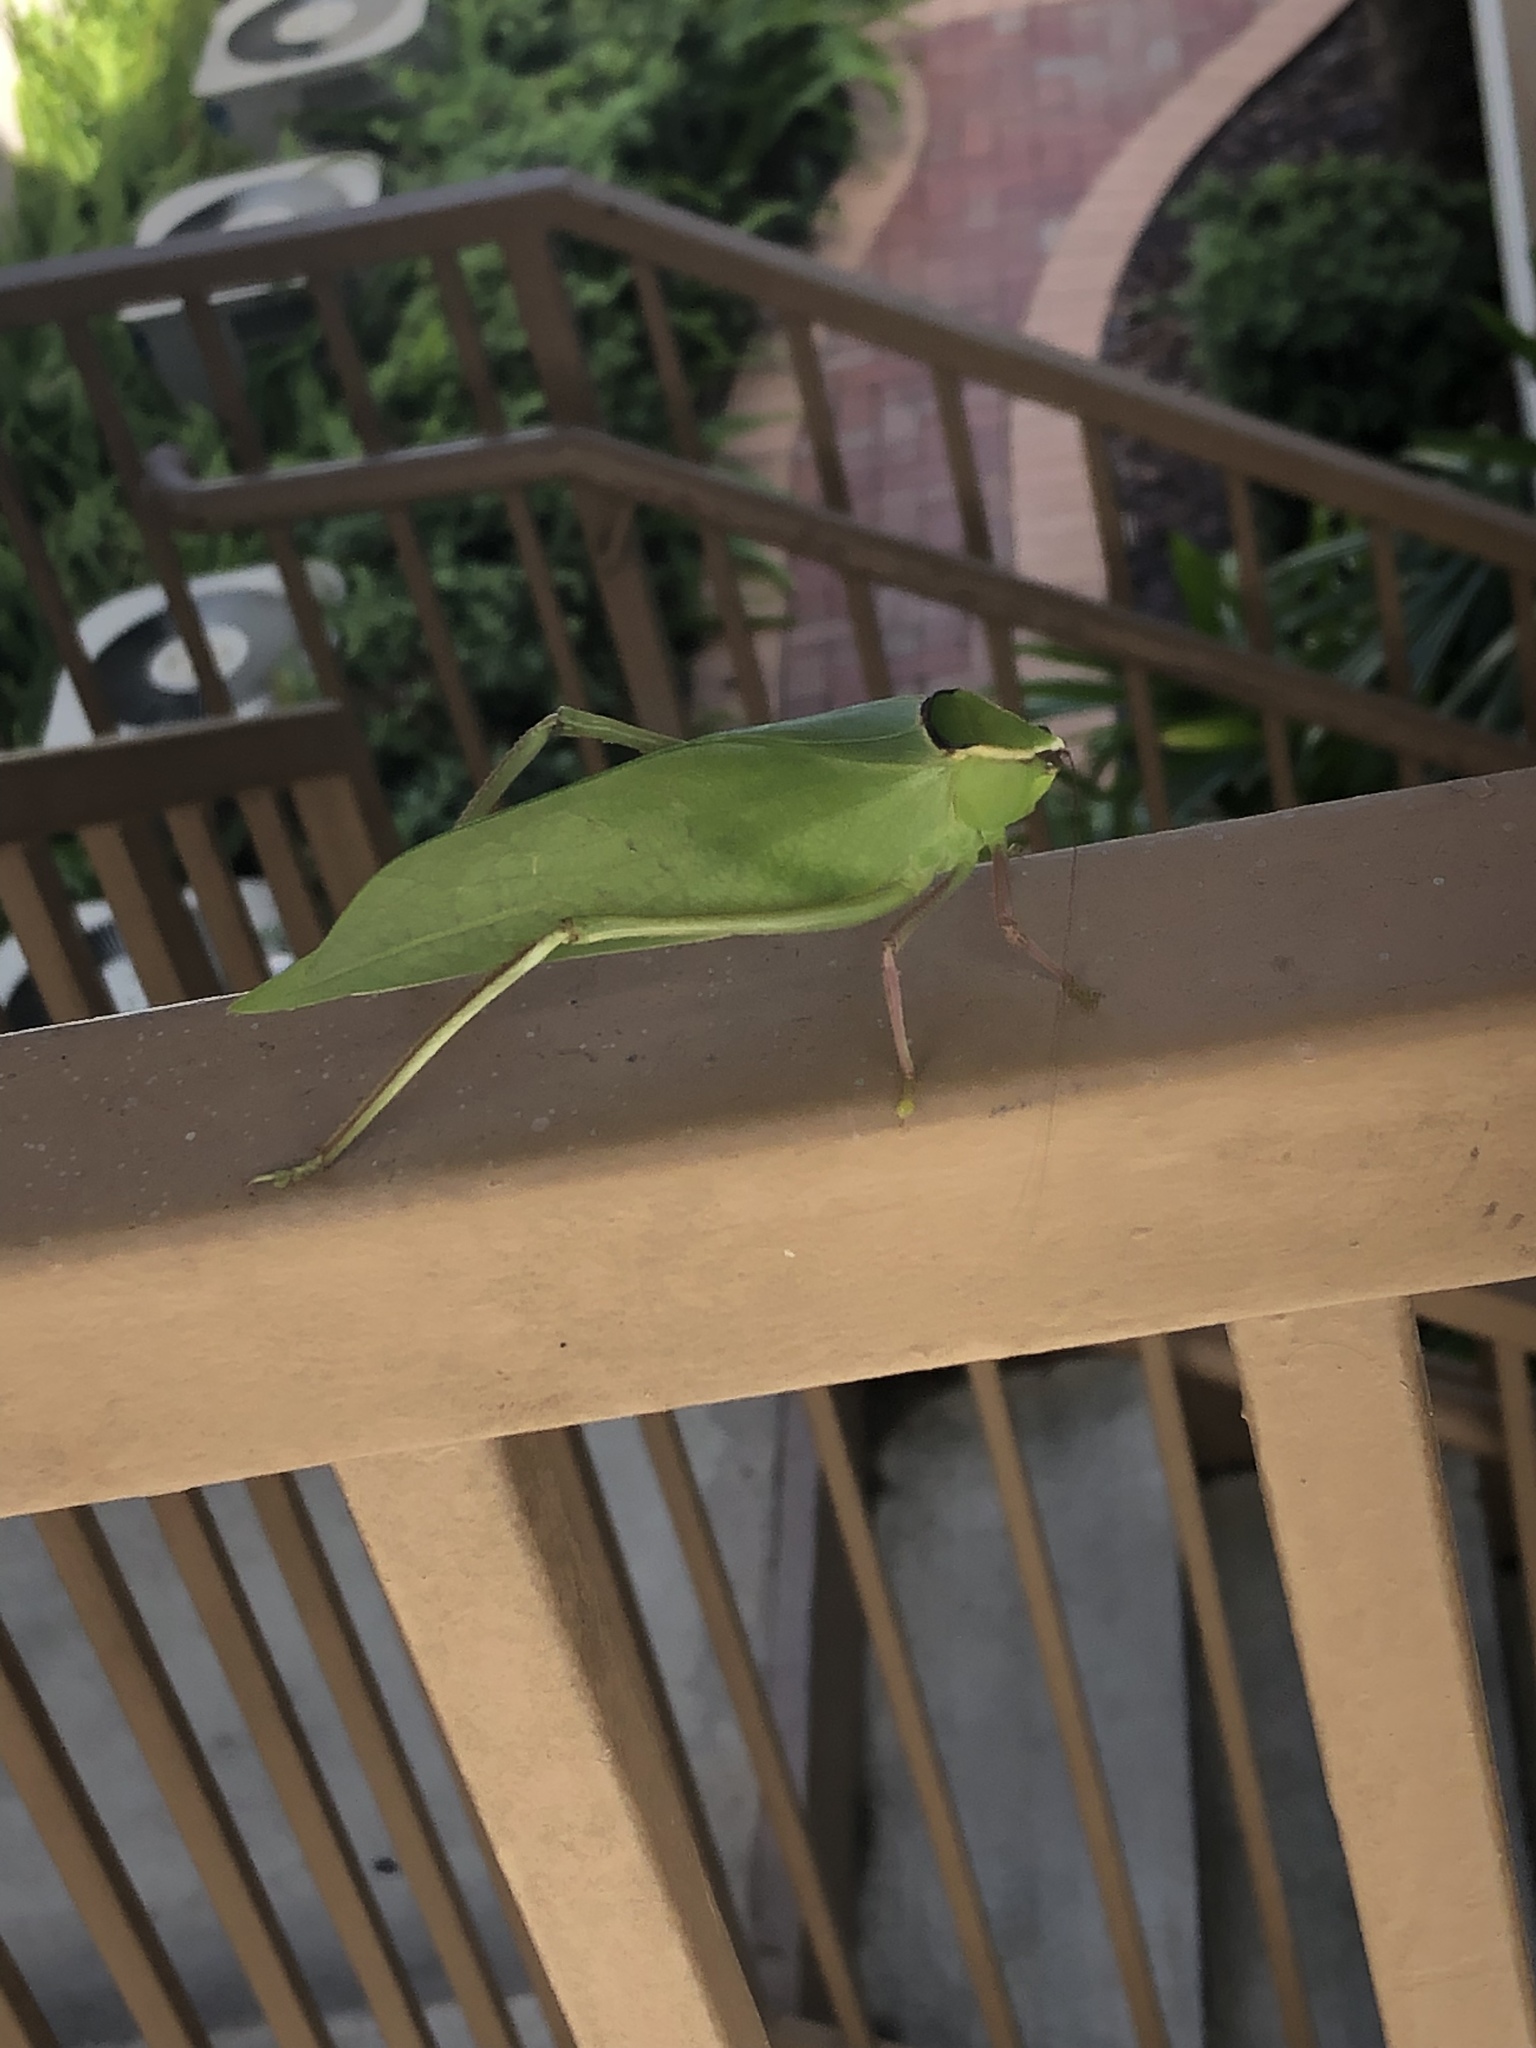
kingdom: Animalia
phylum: Arthropoda
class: Insecta
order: Orthoptera
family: Tettigoniidae
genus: Stilpnochlora
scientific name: Stilpnochlora couloniana
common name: Giant katydid
